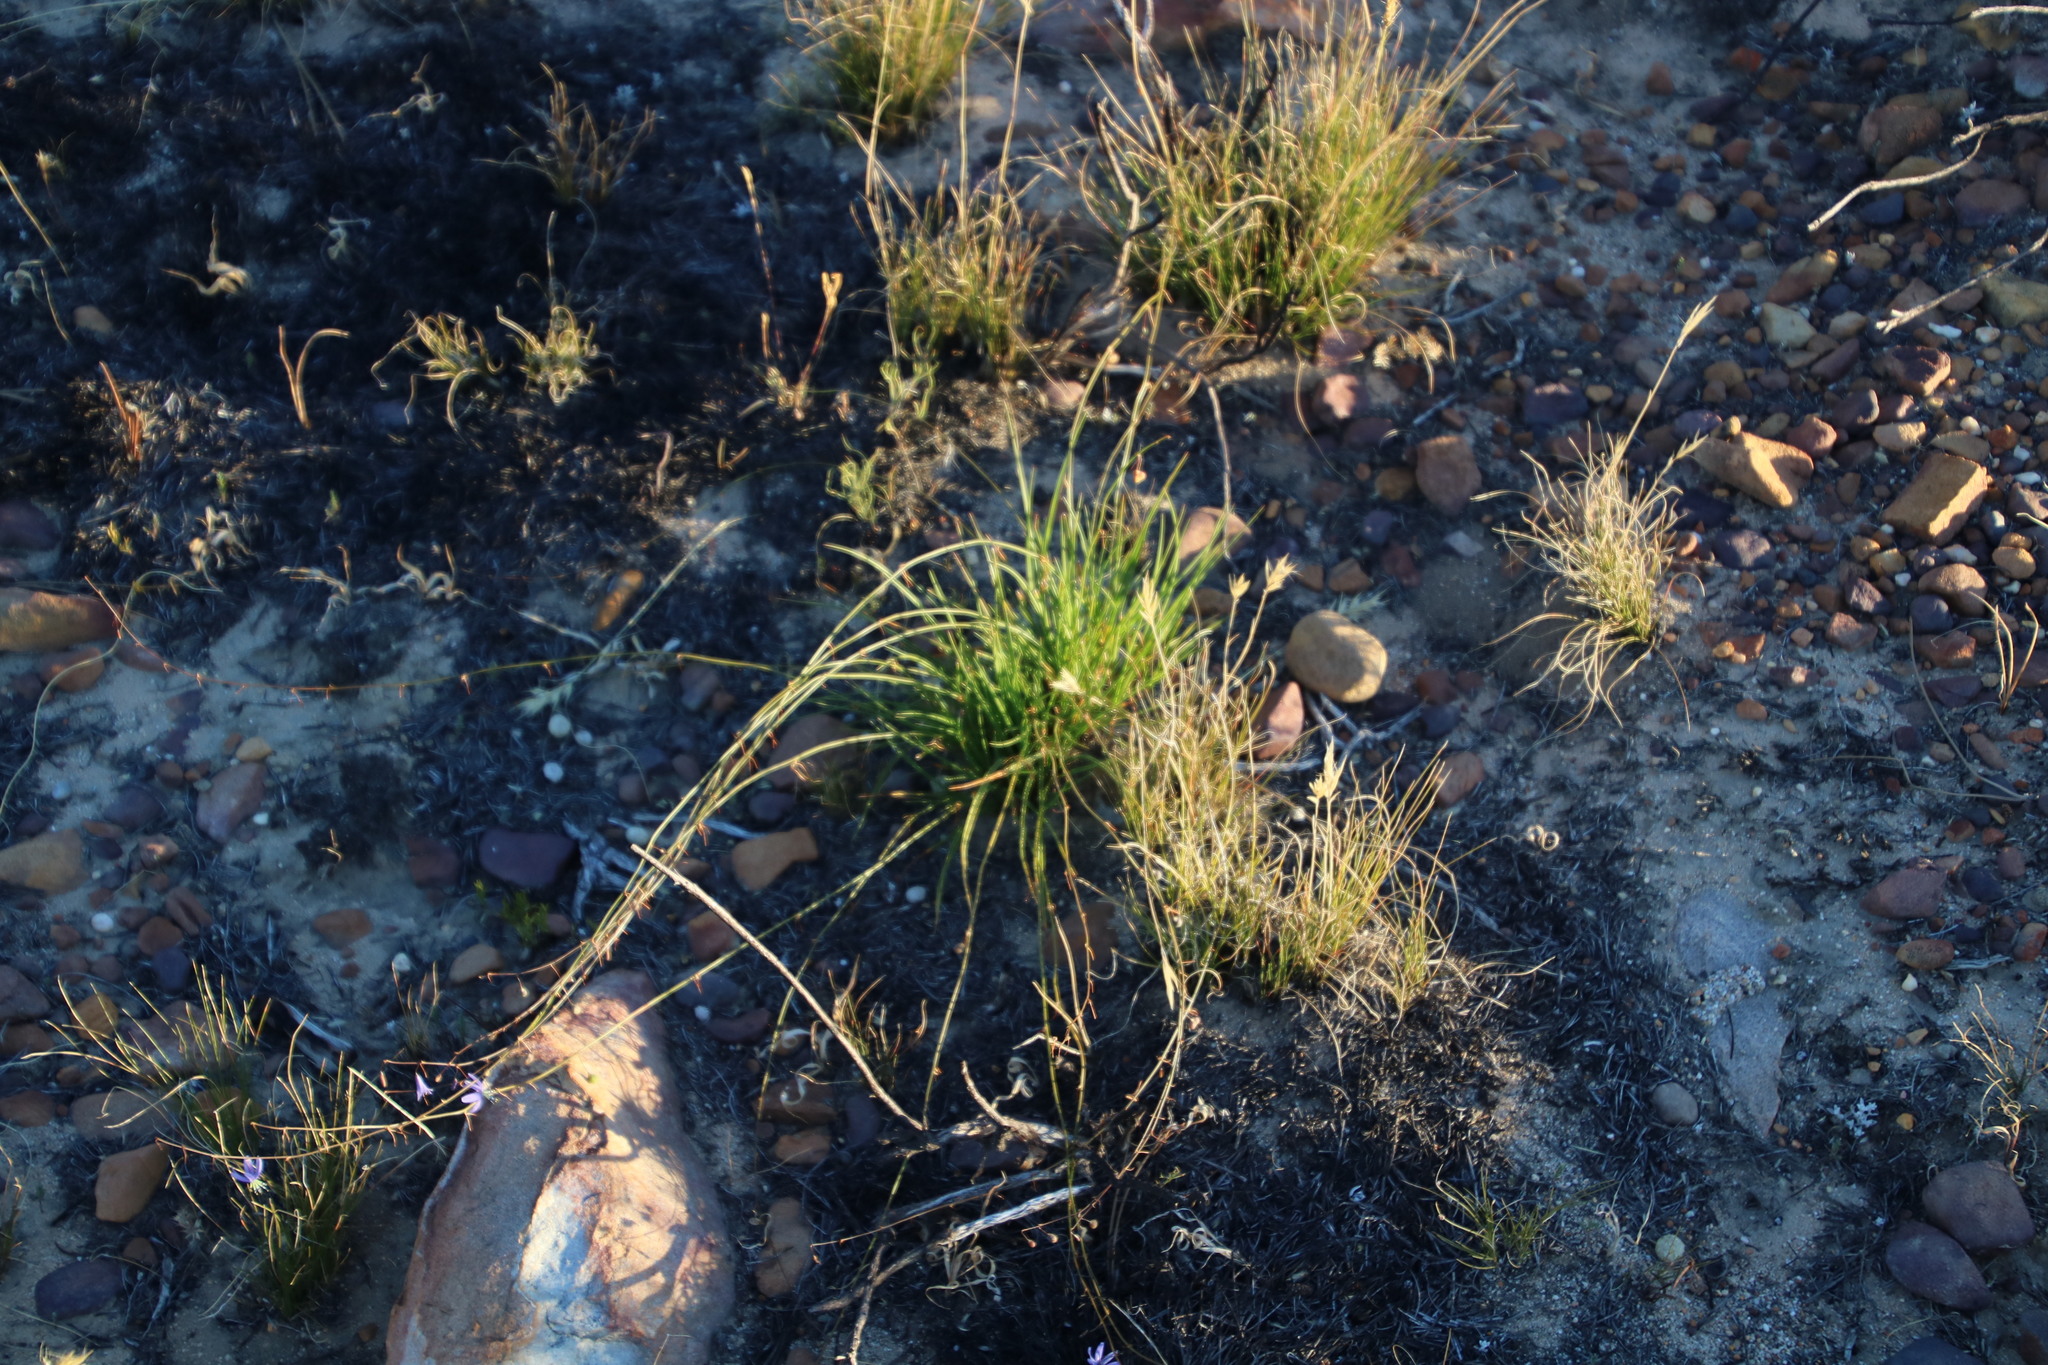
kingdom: Plantae
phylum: Tracheophyta
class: Liliopsida
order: Asparagales
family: Asphodelaceae
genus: Caesia
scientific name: Caesia contorta
